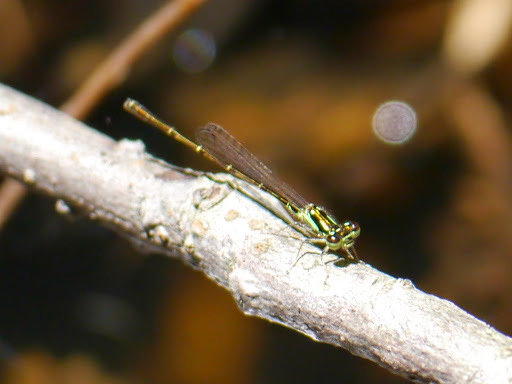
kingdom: Animalia
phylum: Arthropoda
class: Insecta
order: Odonata
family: Coenagrionidae
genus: Ischnura
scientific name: Ischnura posita
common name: Fragile forktail
